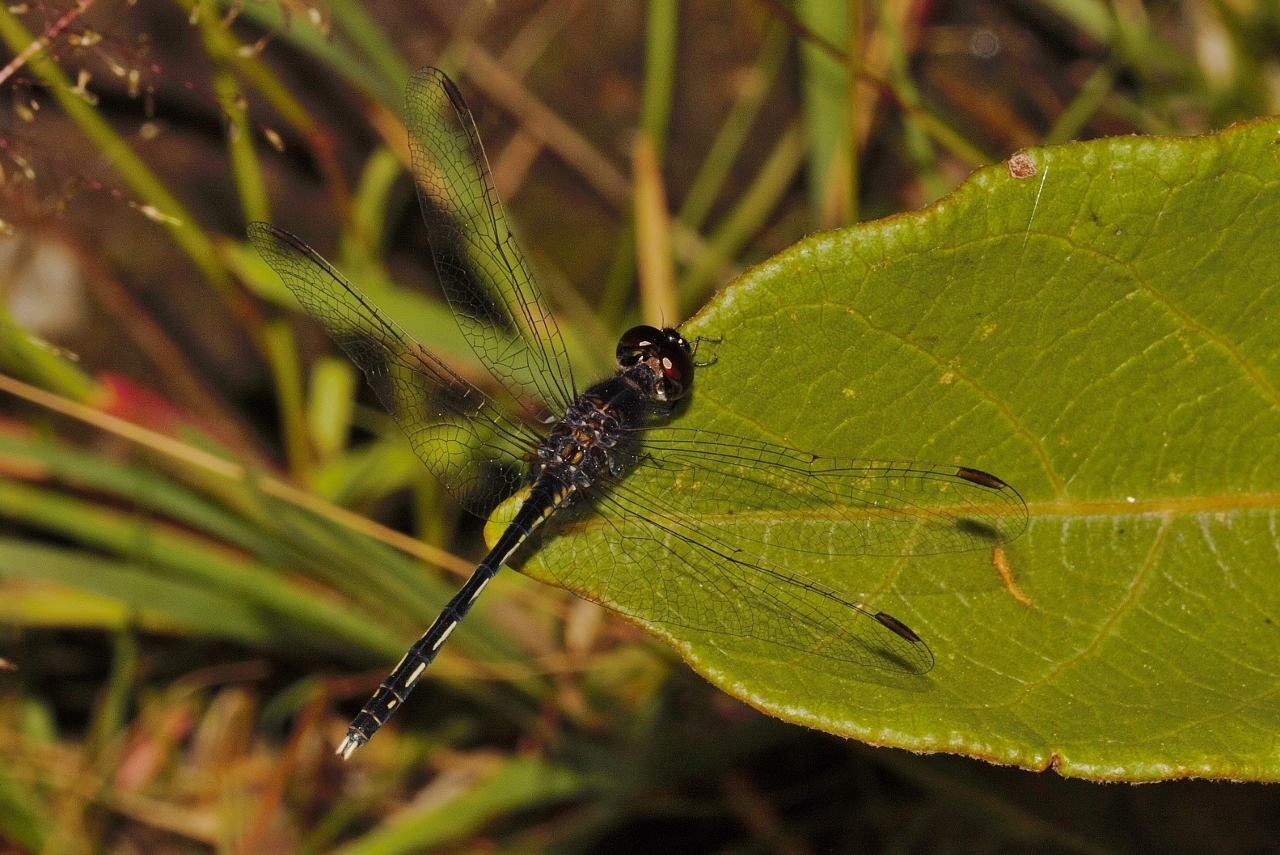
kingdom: Animalia
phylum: Arthropoda
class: Insecta
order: Odonata
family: Libellulidae
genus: Diplacodes
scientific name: Diplacodes lefebvrii
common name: Black percher
